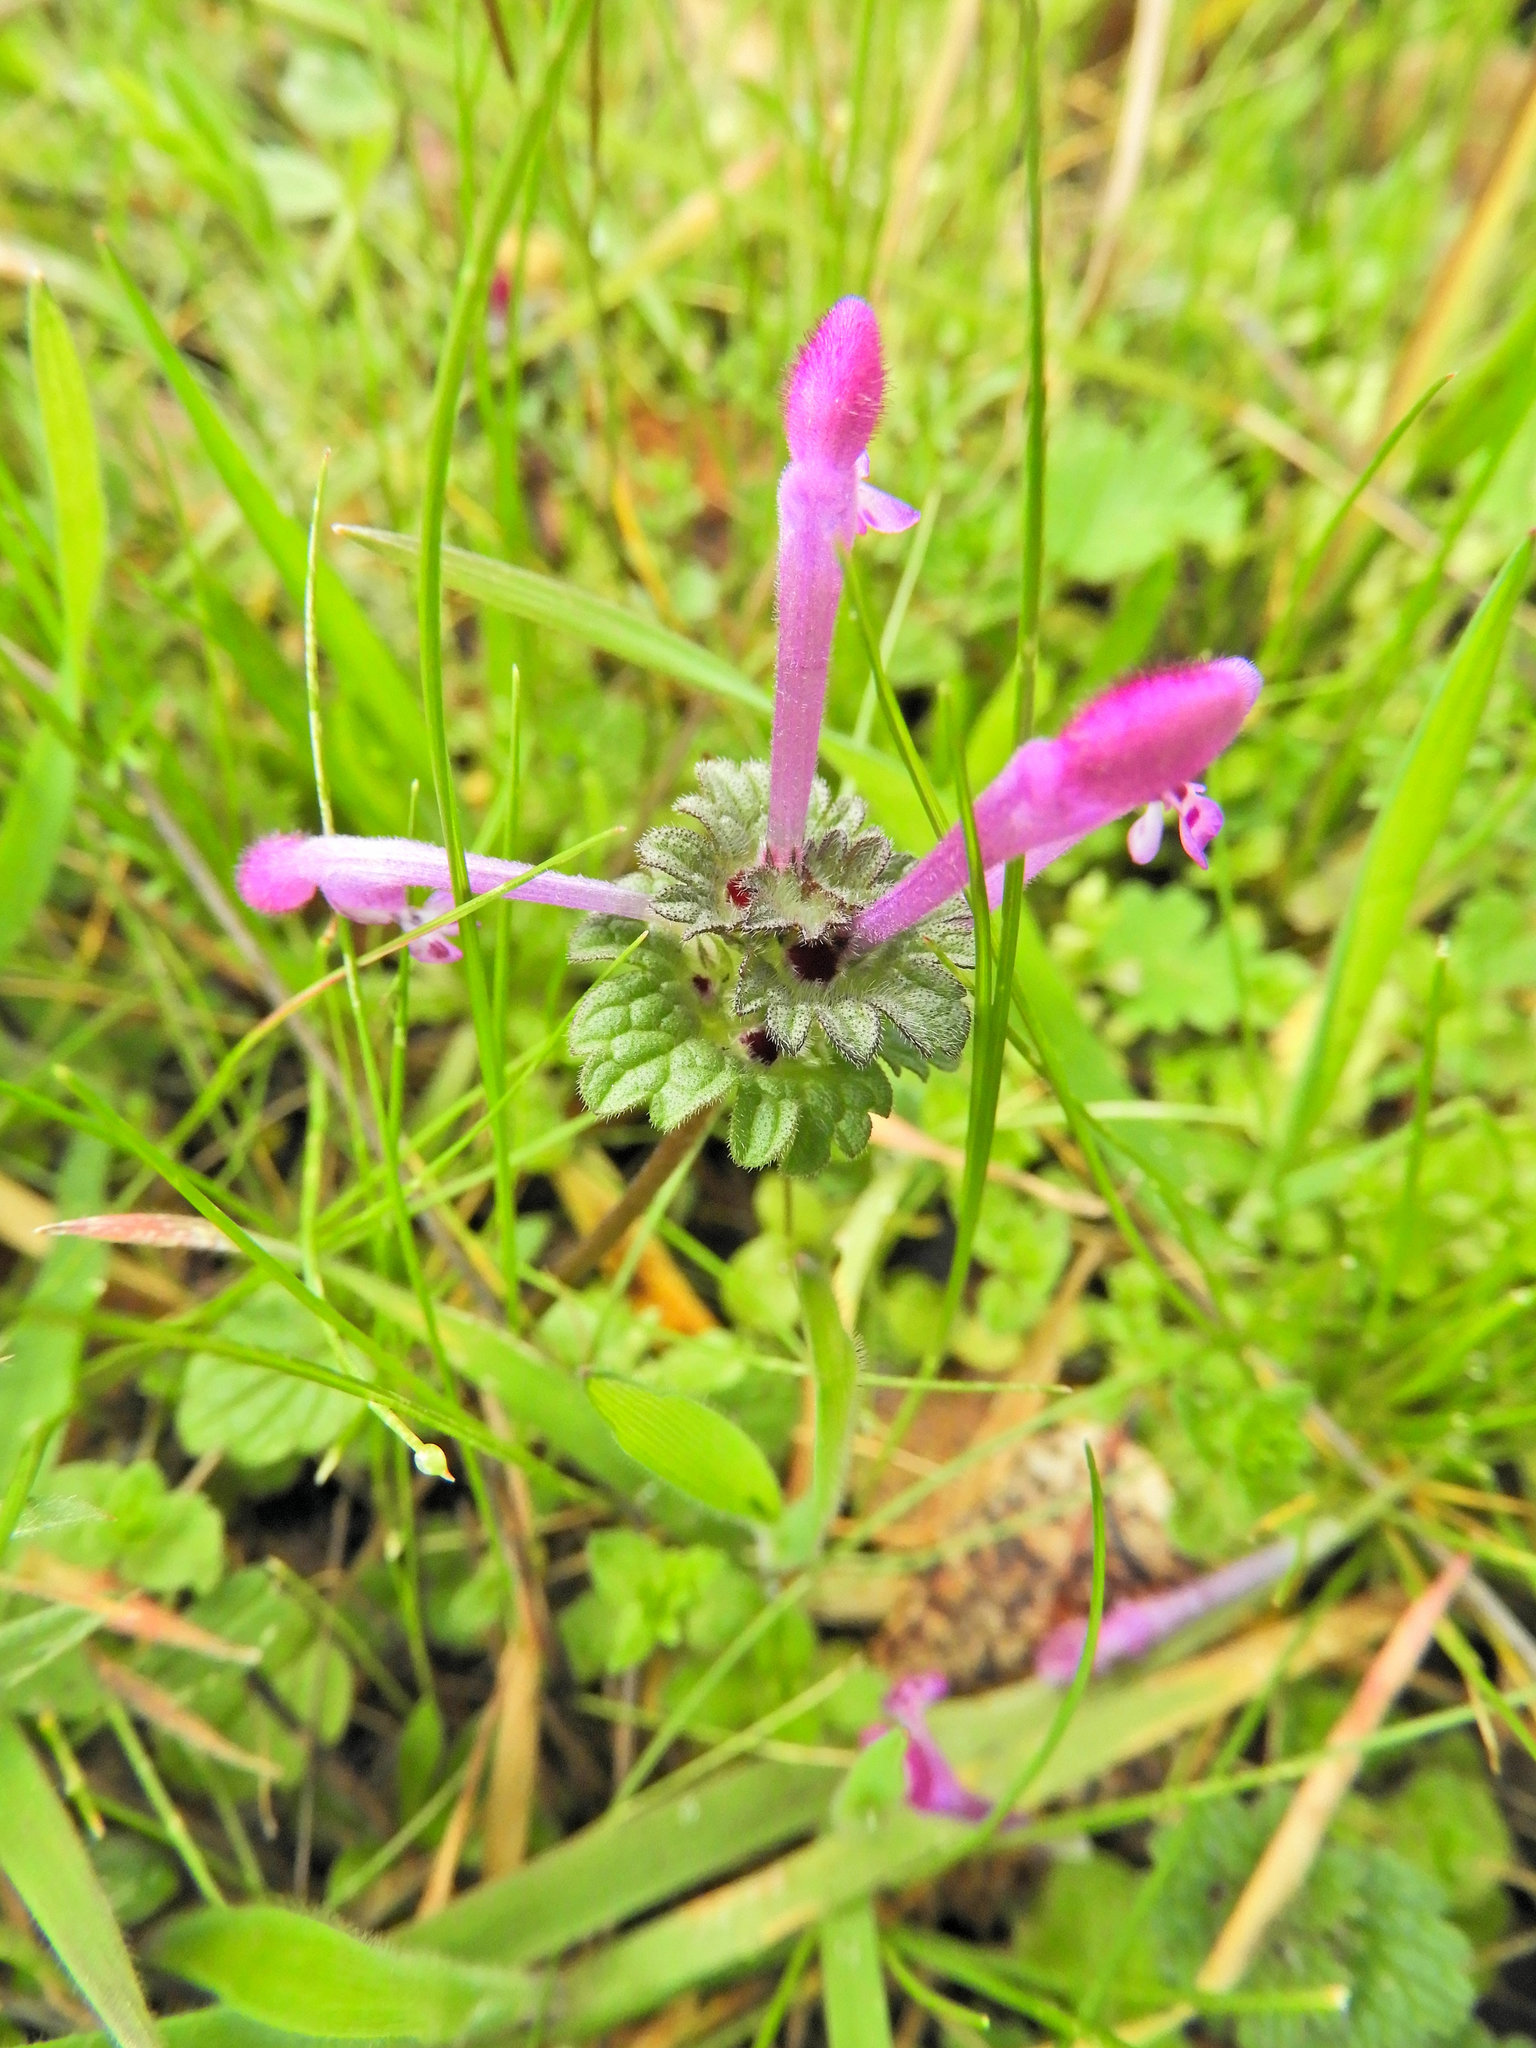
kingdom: Plantae
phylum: Tracheophyta
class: Magnoliopsida
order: Lamiales
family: Lamiaceae
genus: Lamium
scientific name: Lamium amplexicaule
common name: Henbit dead-nettle
